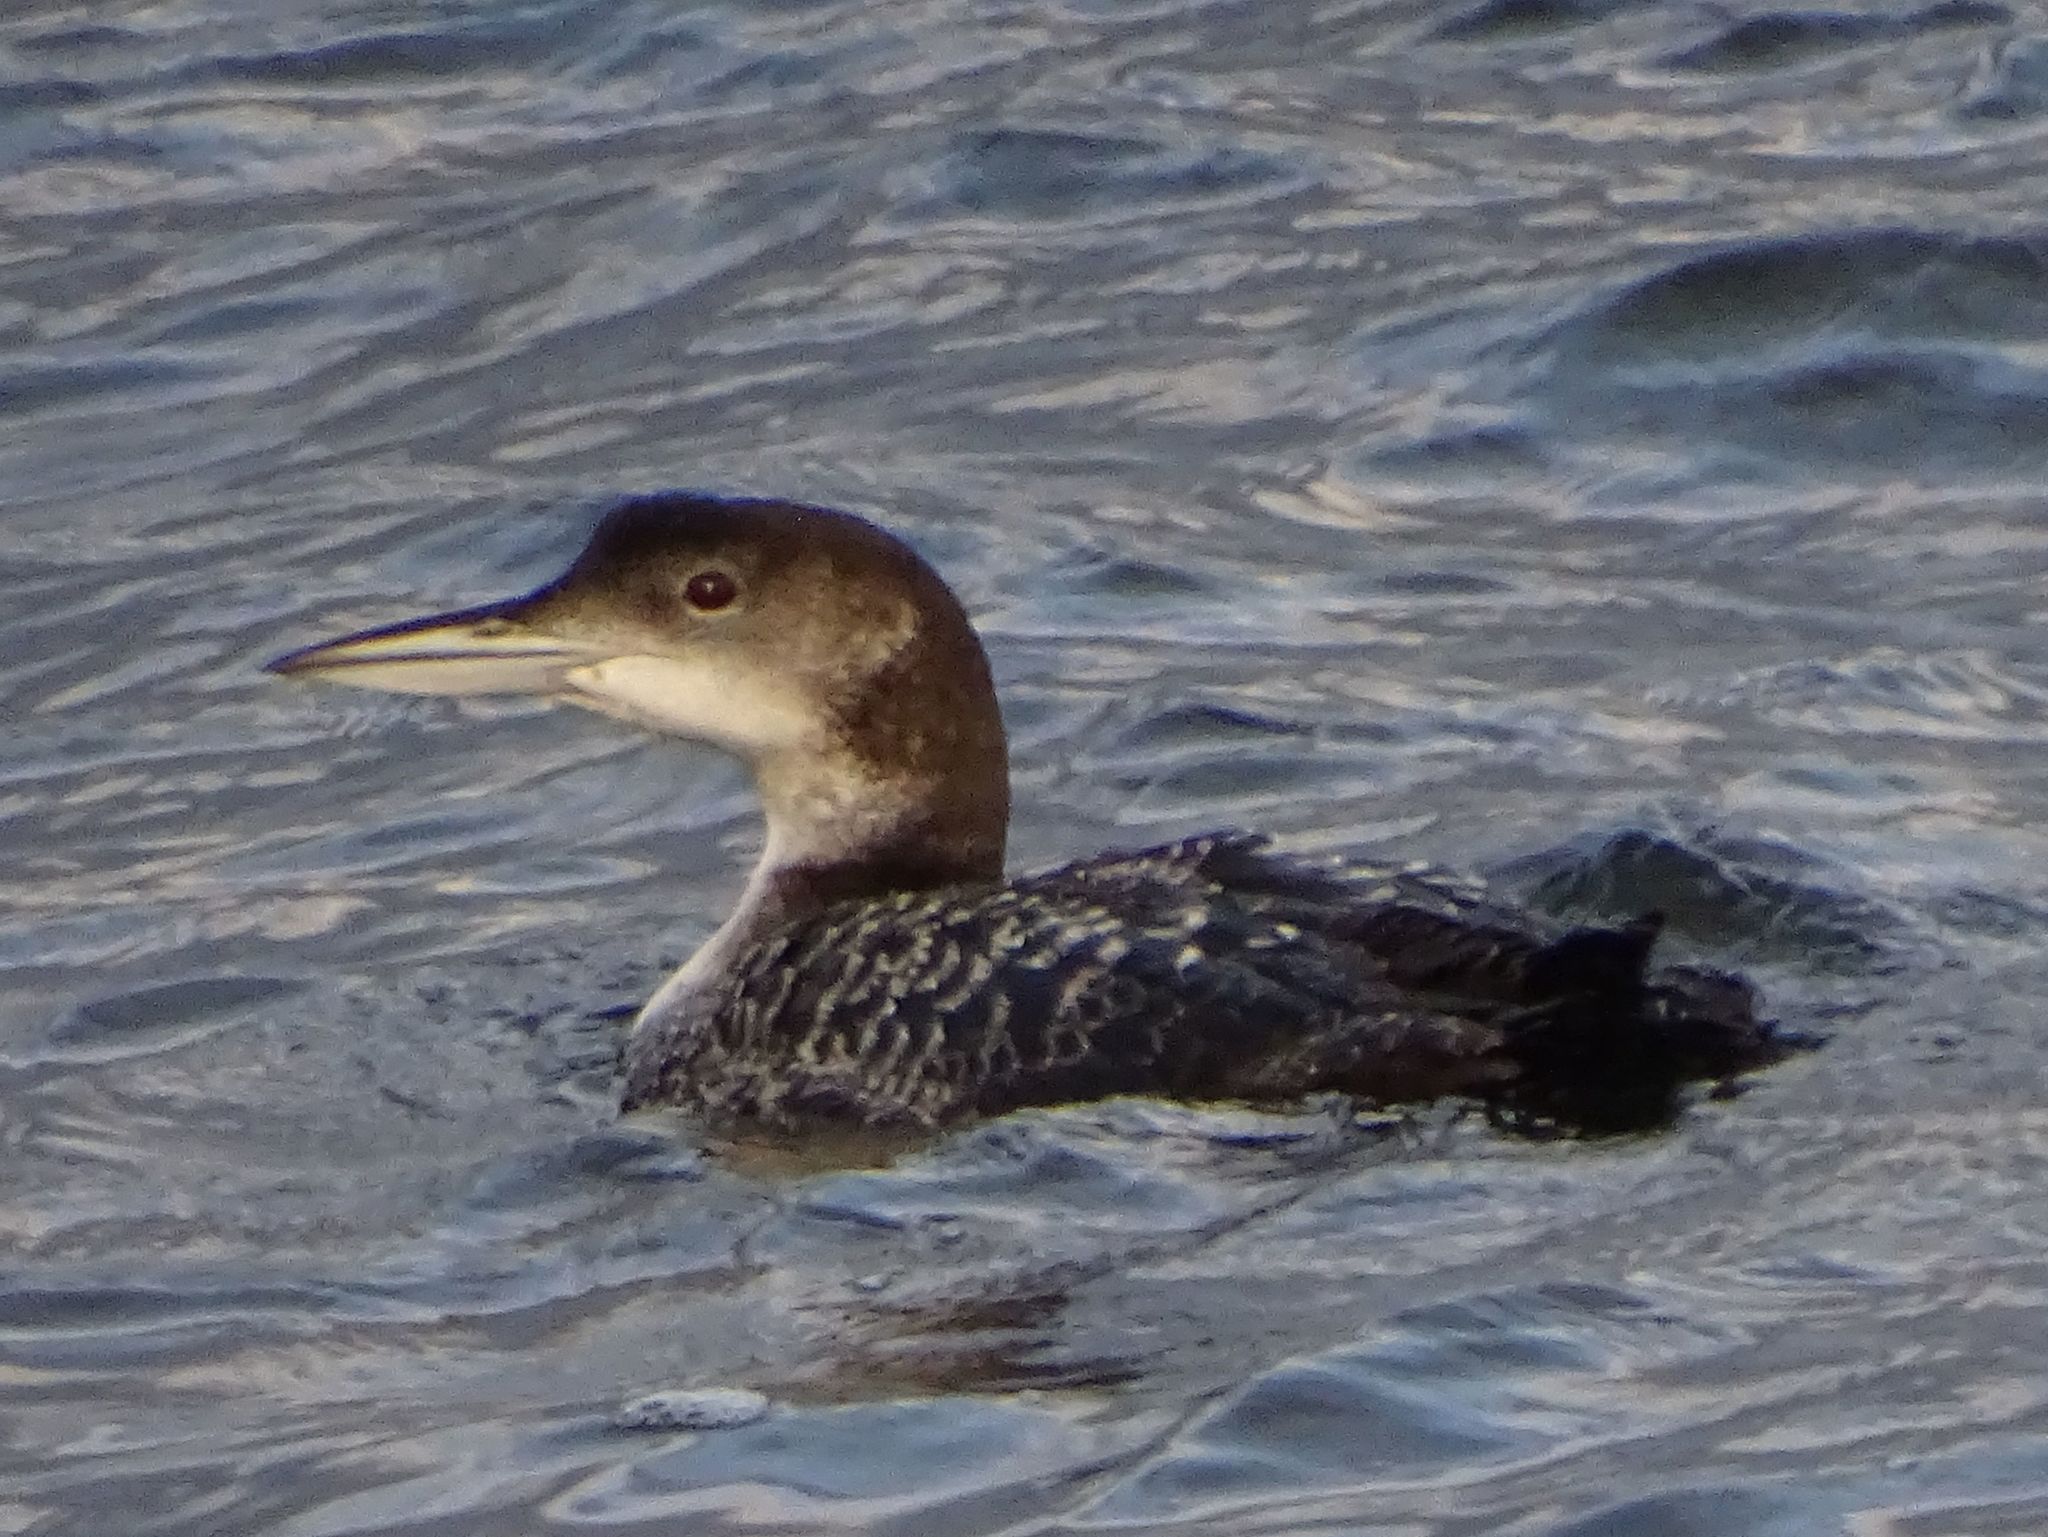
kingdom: Animalia
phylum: Chordata
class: Aves
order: Gaviiformes
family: Gaviidae
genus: Gavia
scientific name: Gavia immer
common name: Common loon
